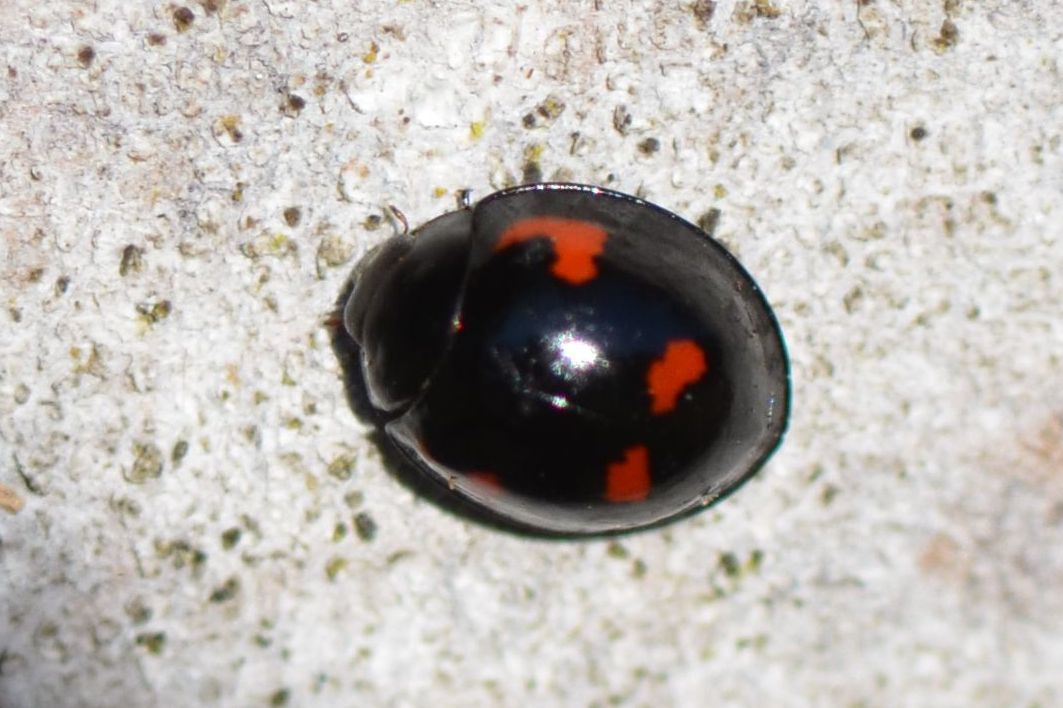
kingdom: Animalia
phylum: Arthropoda
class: Insecta
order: Coleoptera
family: Coccinellidae
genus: Brumus
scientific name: Brumus quadripustulatus
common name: Ladybird beetle
